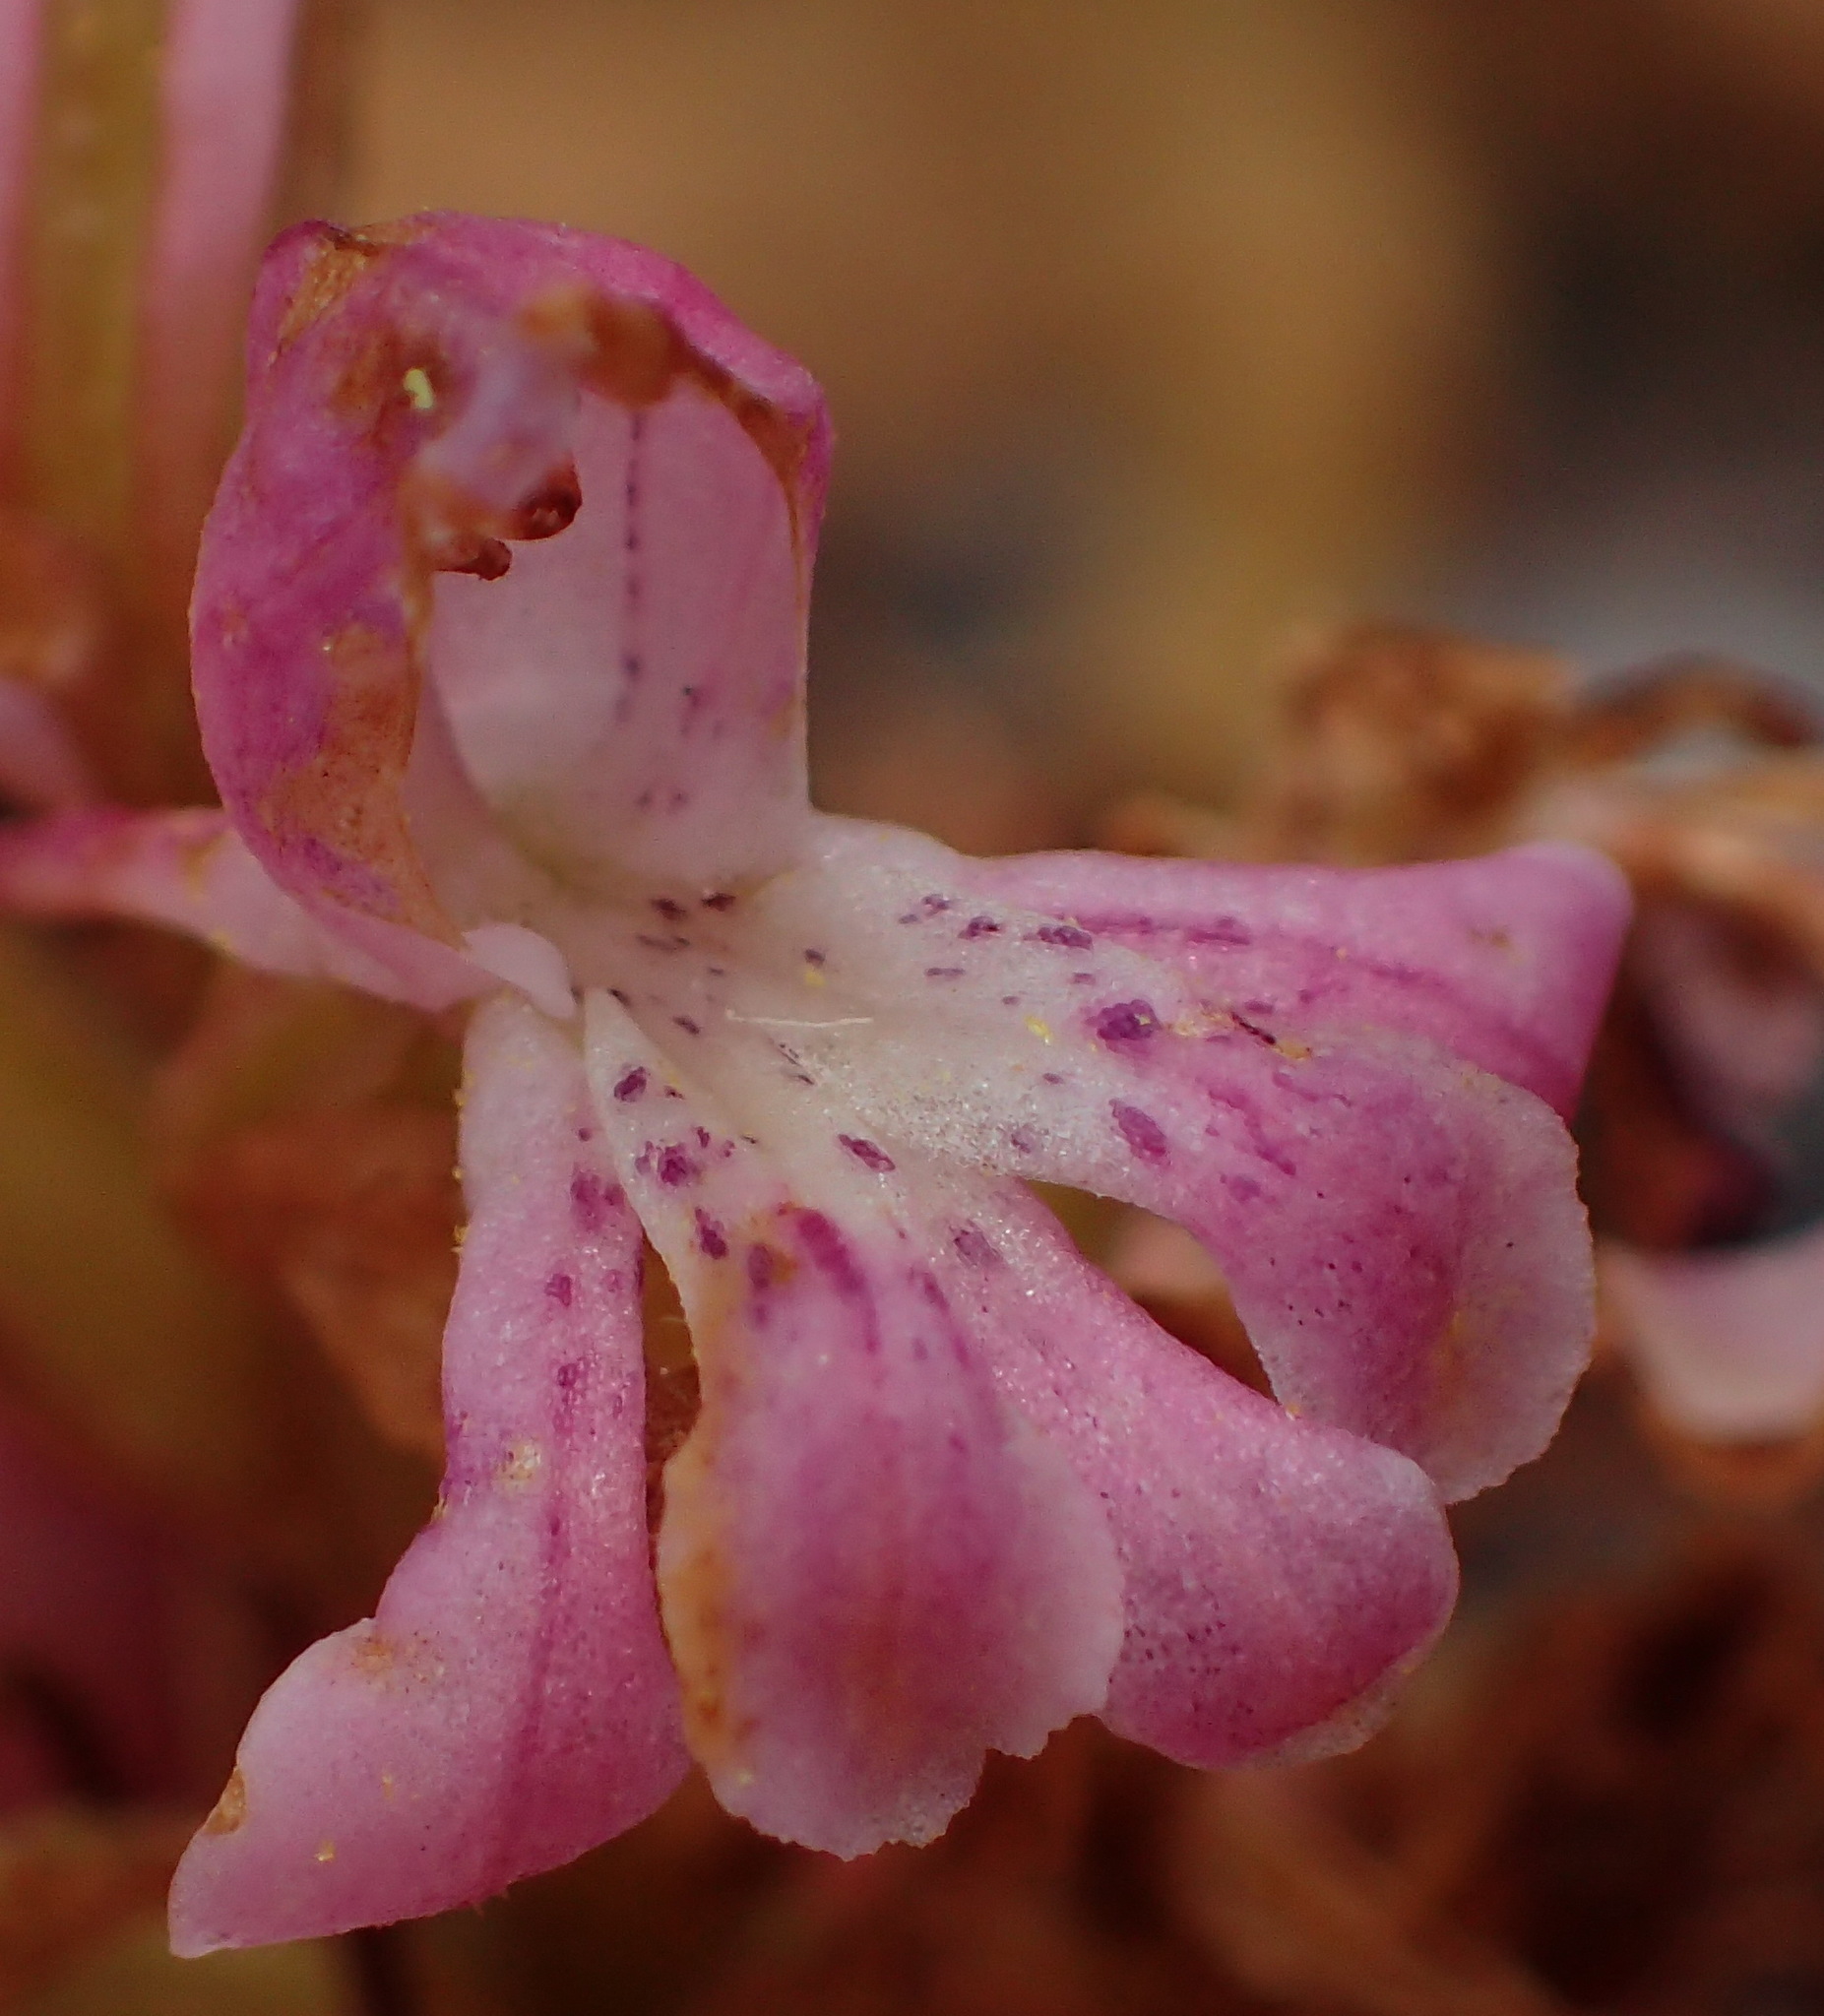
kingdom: Plantae
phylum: Tracheophyta
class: Liliopsida
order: Asparagales
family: Orchidaceae
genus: Satyrium
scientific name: Satyrium erectum
